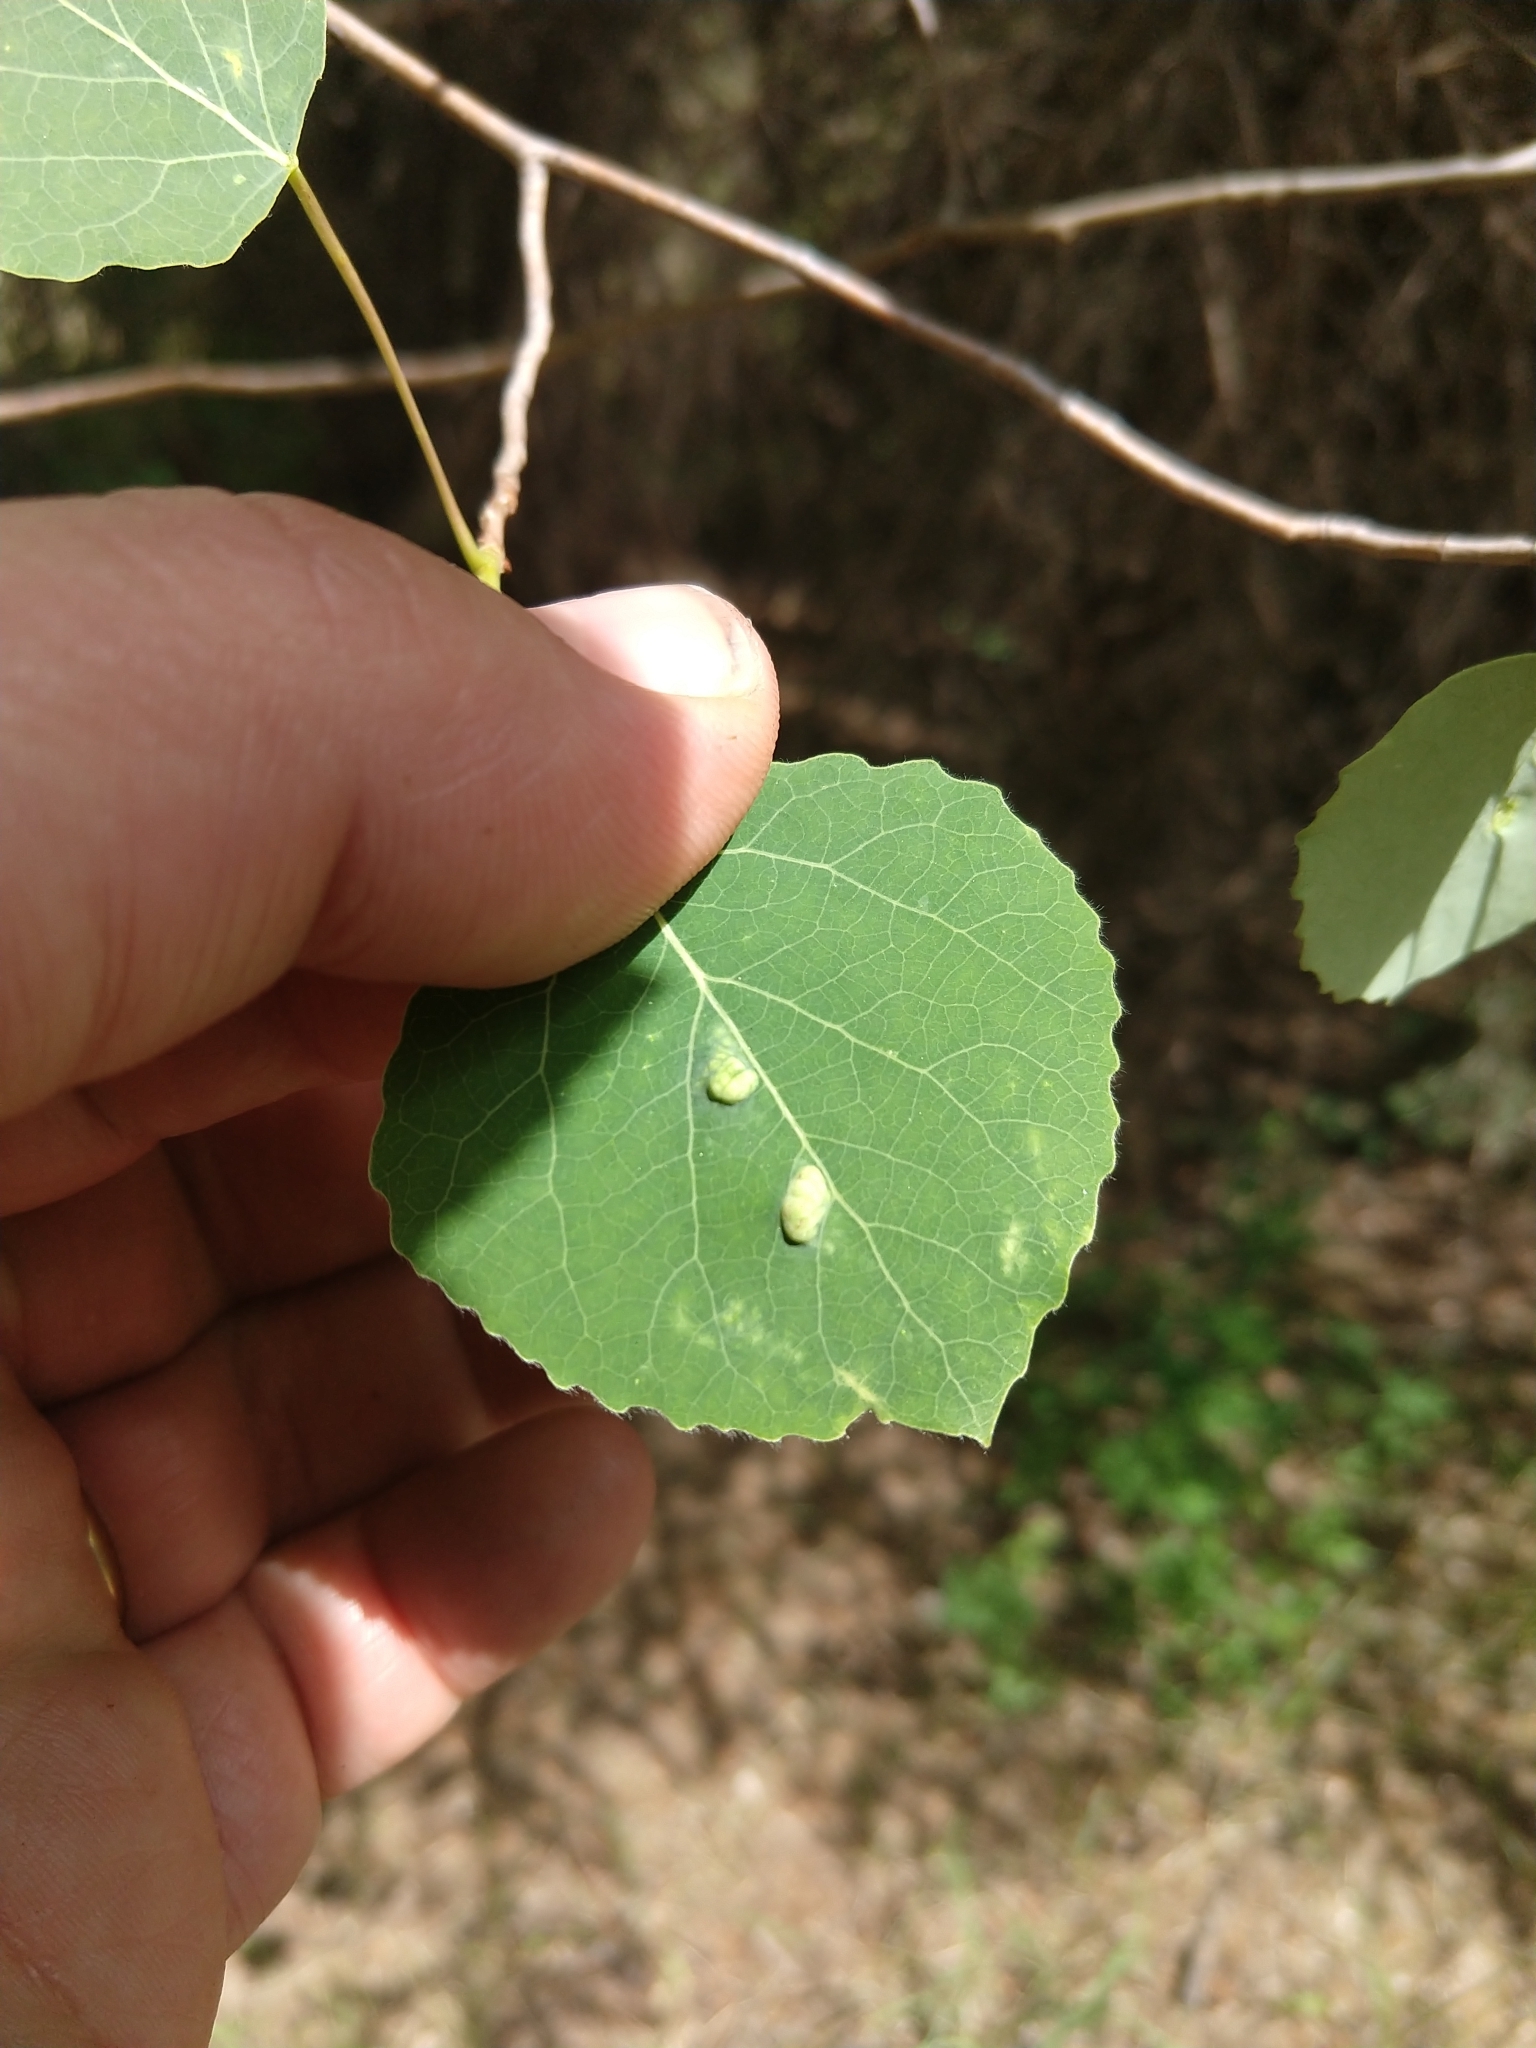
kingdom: Animalia
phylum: Arthropoda
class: Arachnida
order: Trombidiformes
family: Eriophyidae
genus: Phyllocoptes
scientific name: Phyllocoptes
